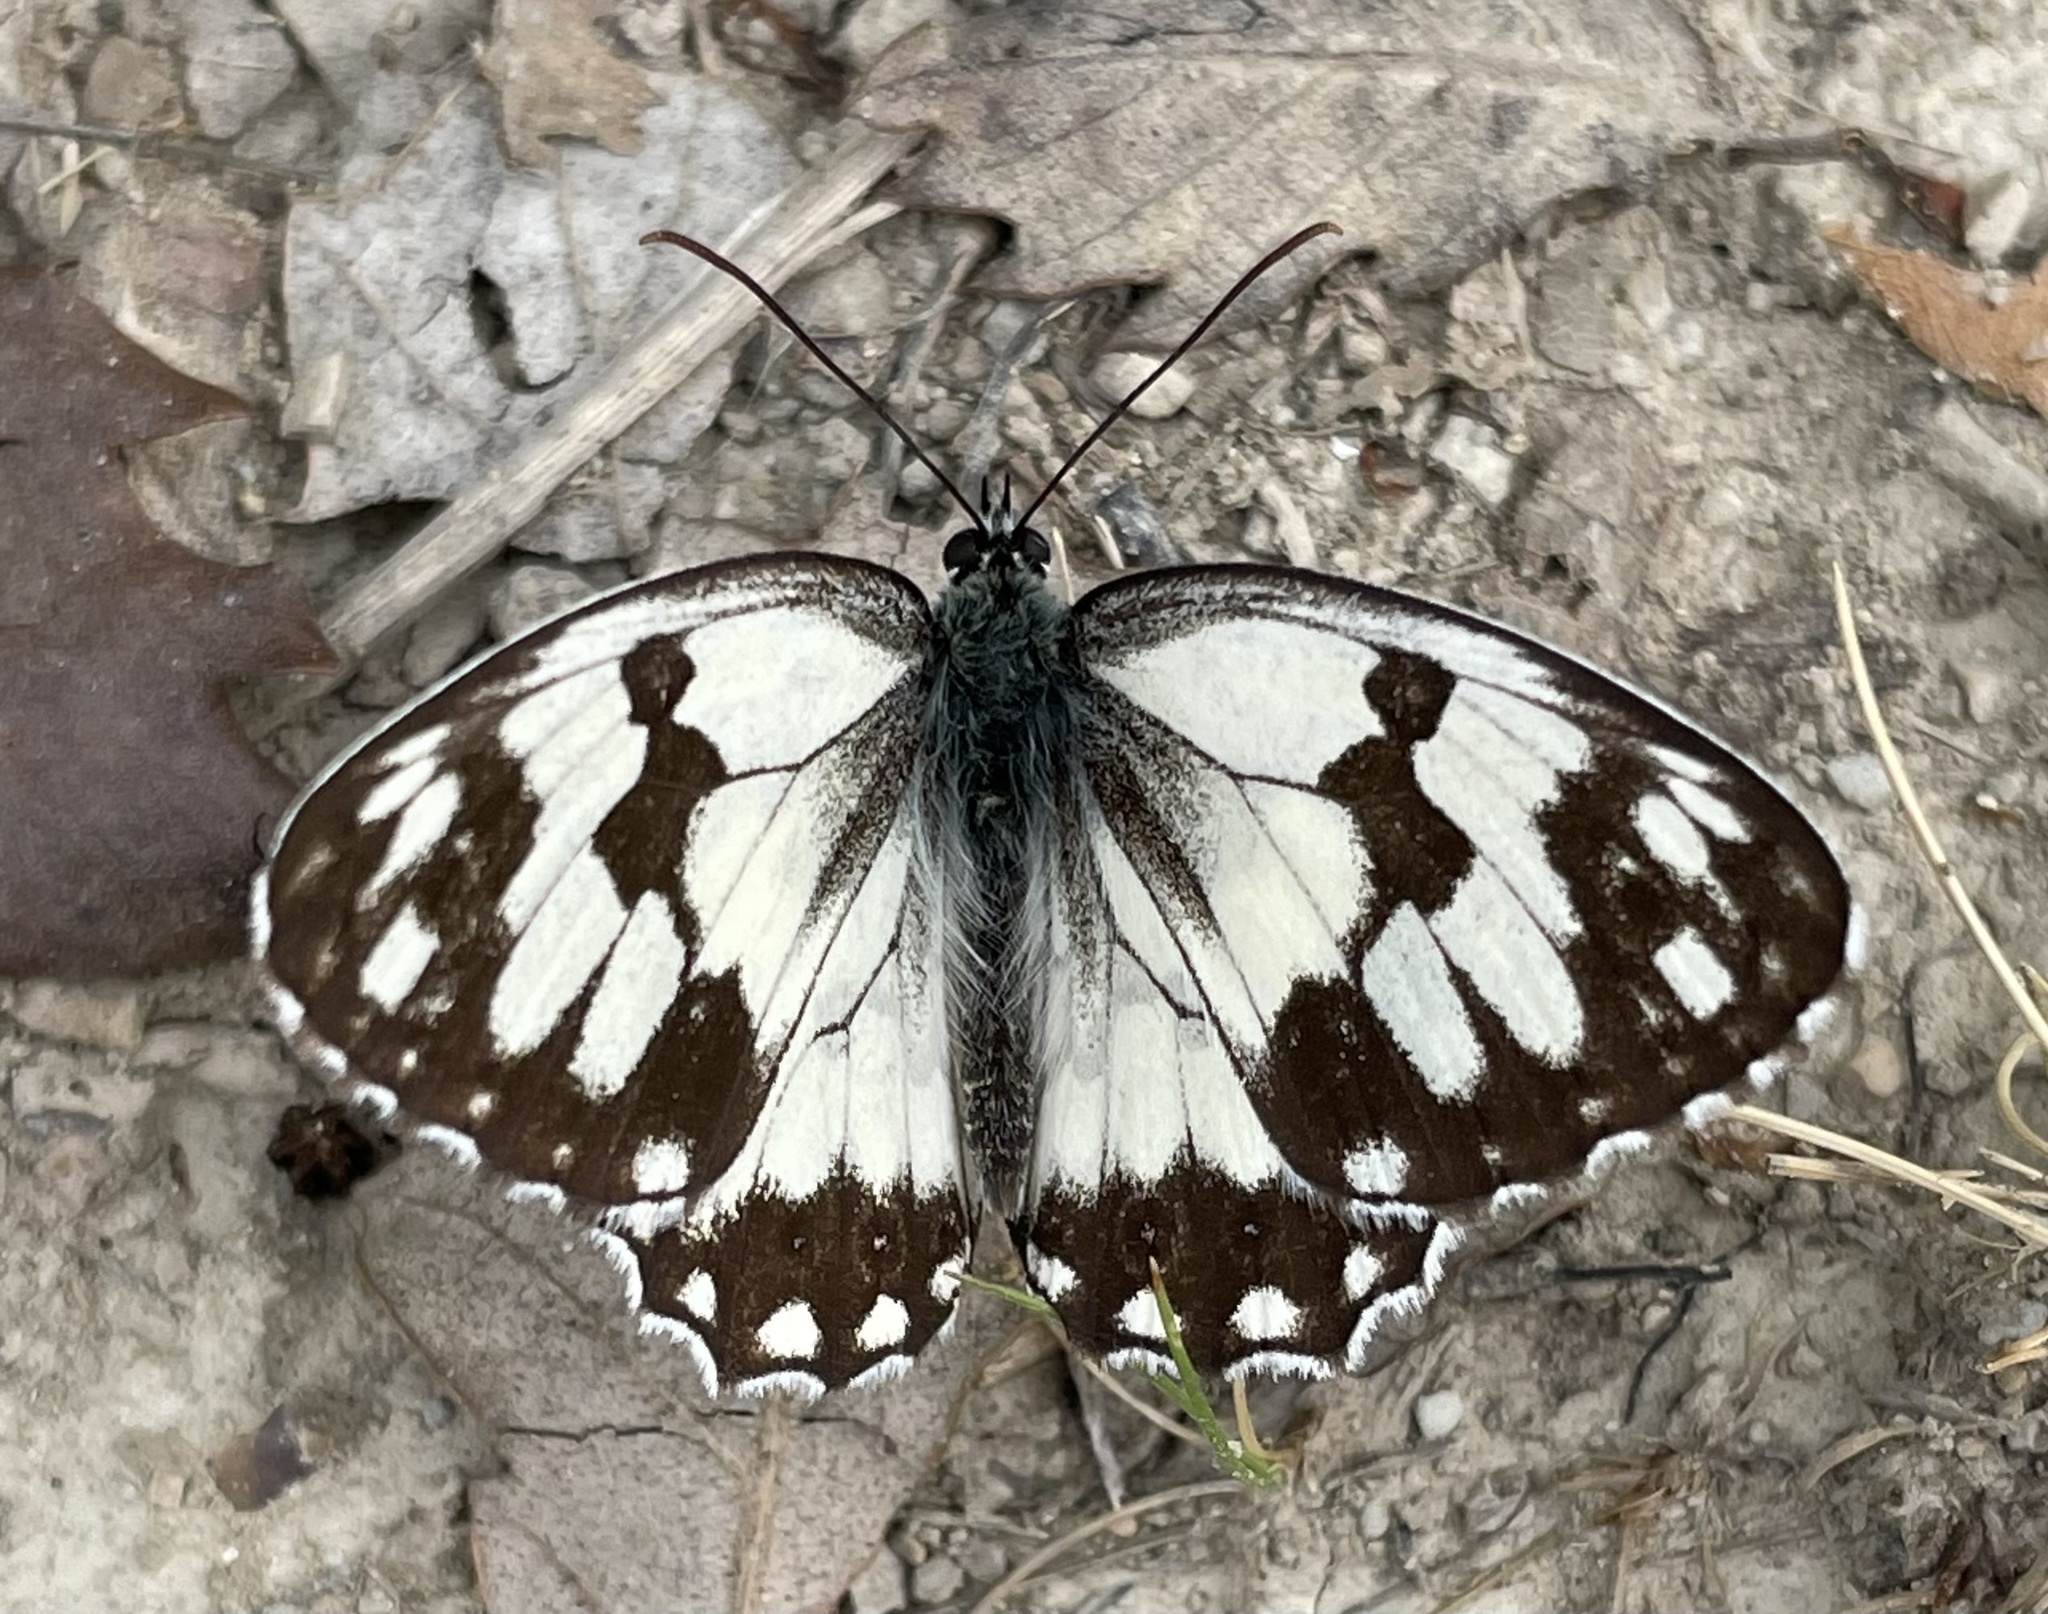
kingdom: Animalia
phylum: Arthropoda
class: Insecta
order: Lepidoptera
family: Nymphalidae
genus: Melanargia
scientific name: Melanargia lachesis
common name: Iberian marbled white
